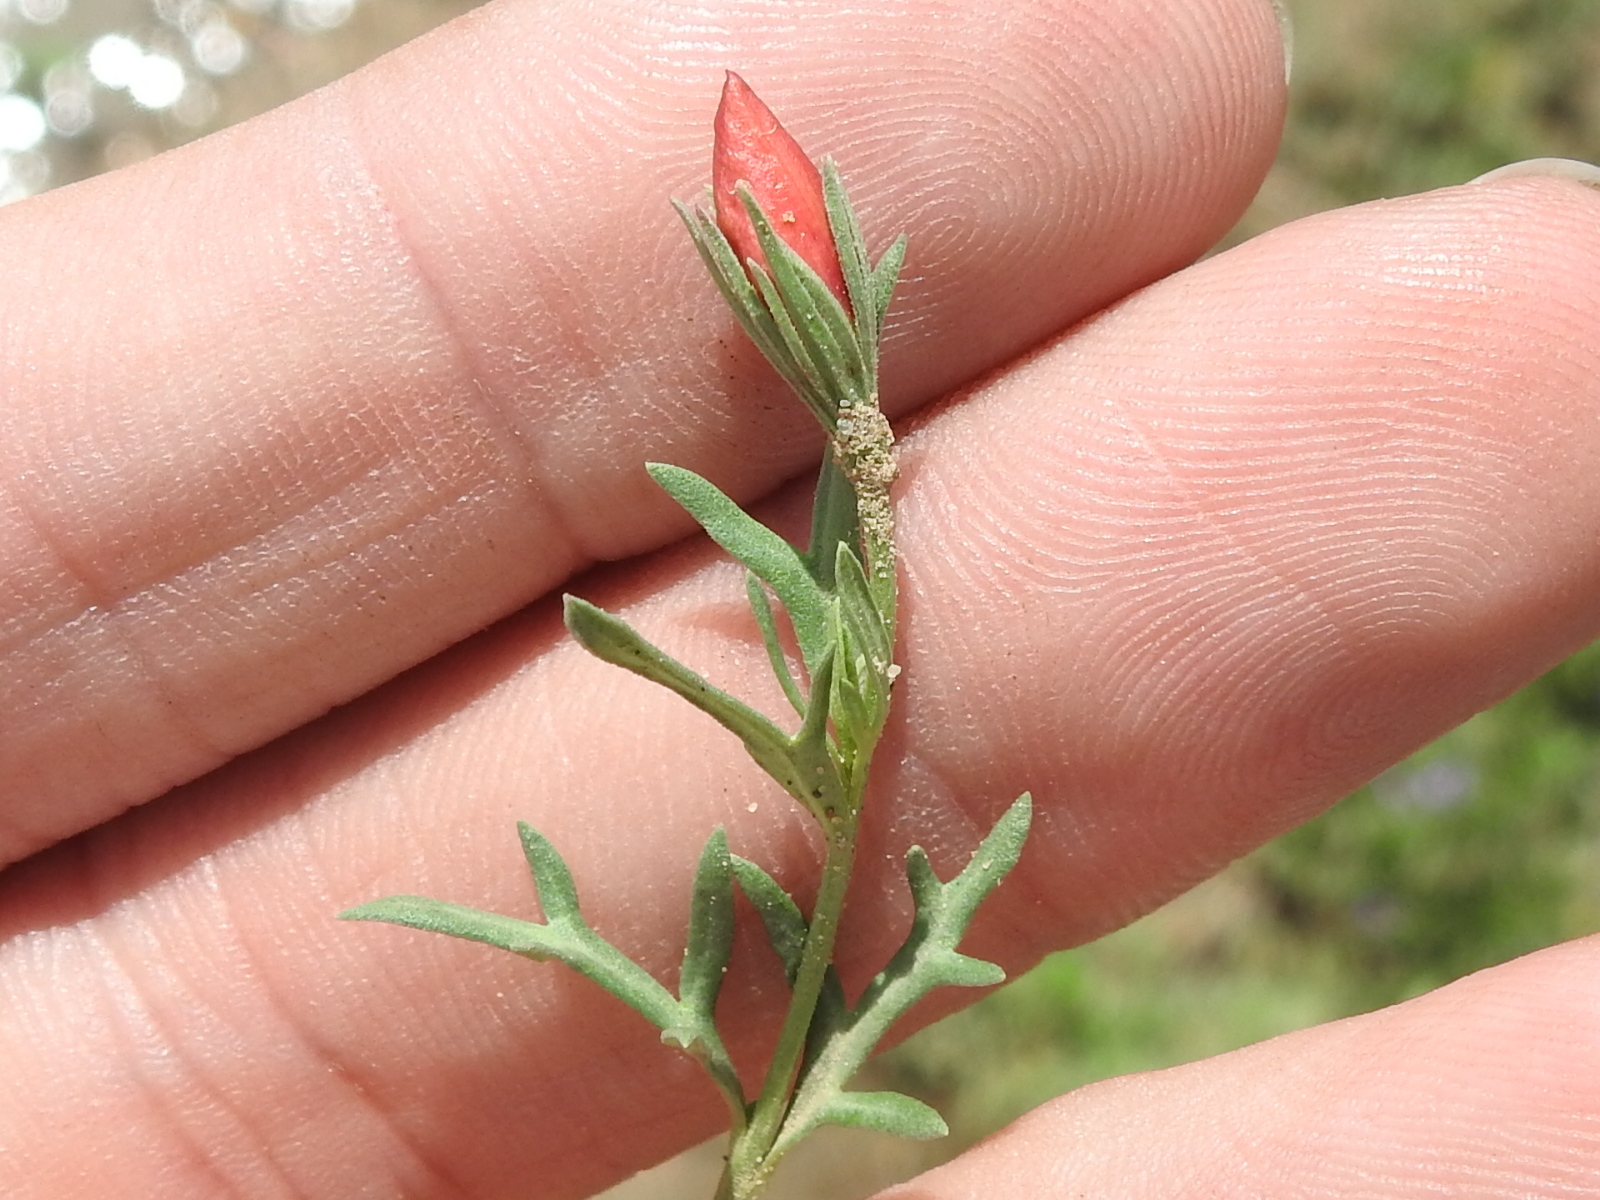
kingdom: Plantae
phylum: Tracheophyta
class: Magnoliopsida
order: Lamiales
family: Oleaceae
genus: Menodora
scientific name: Menodora heterophylla
